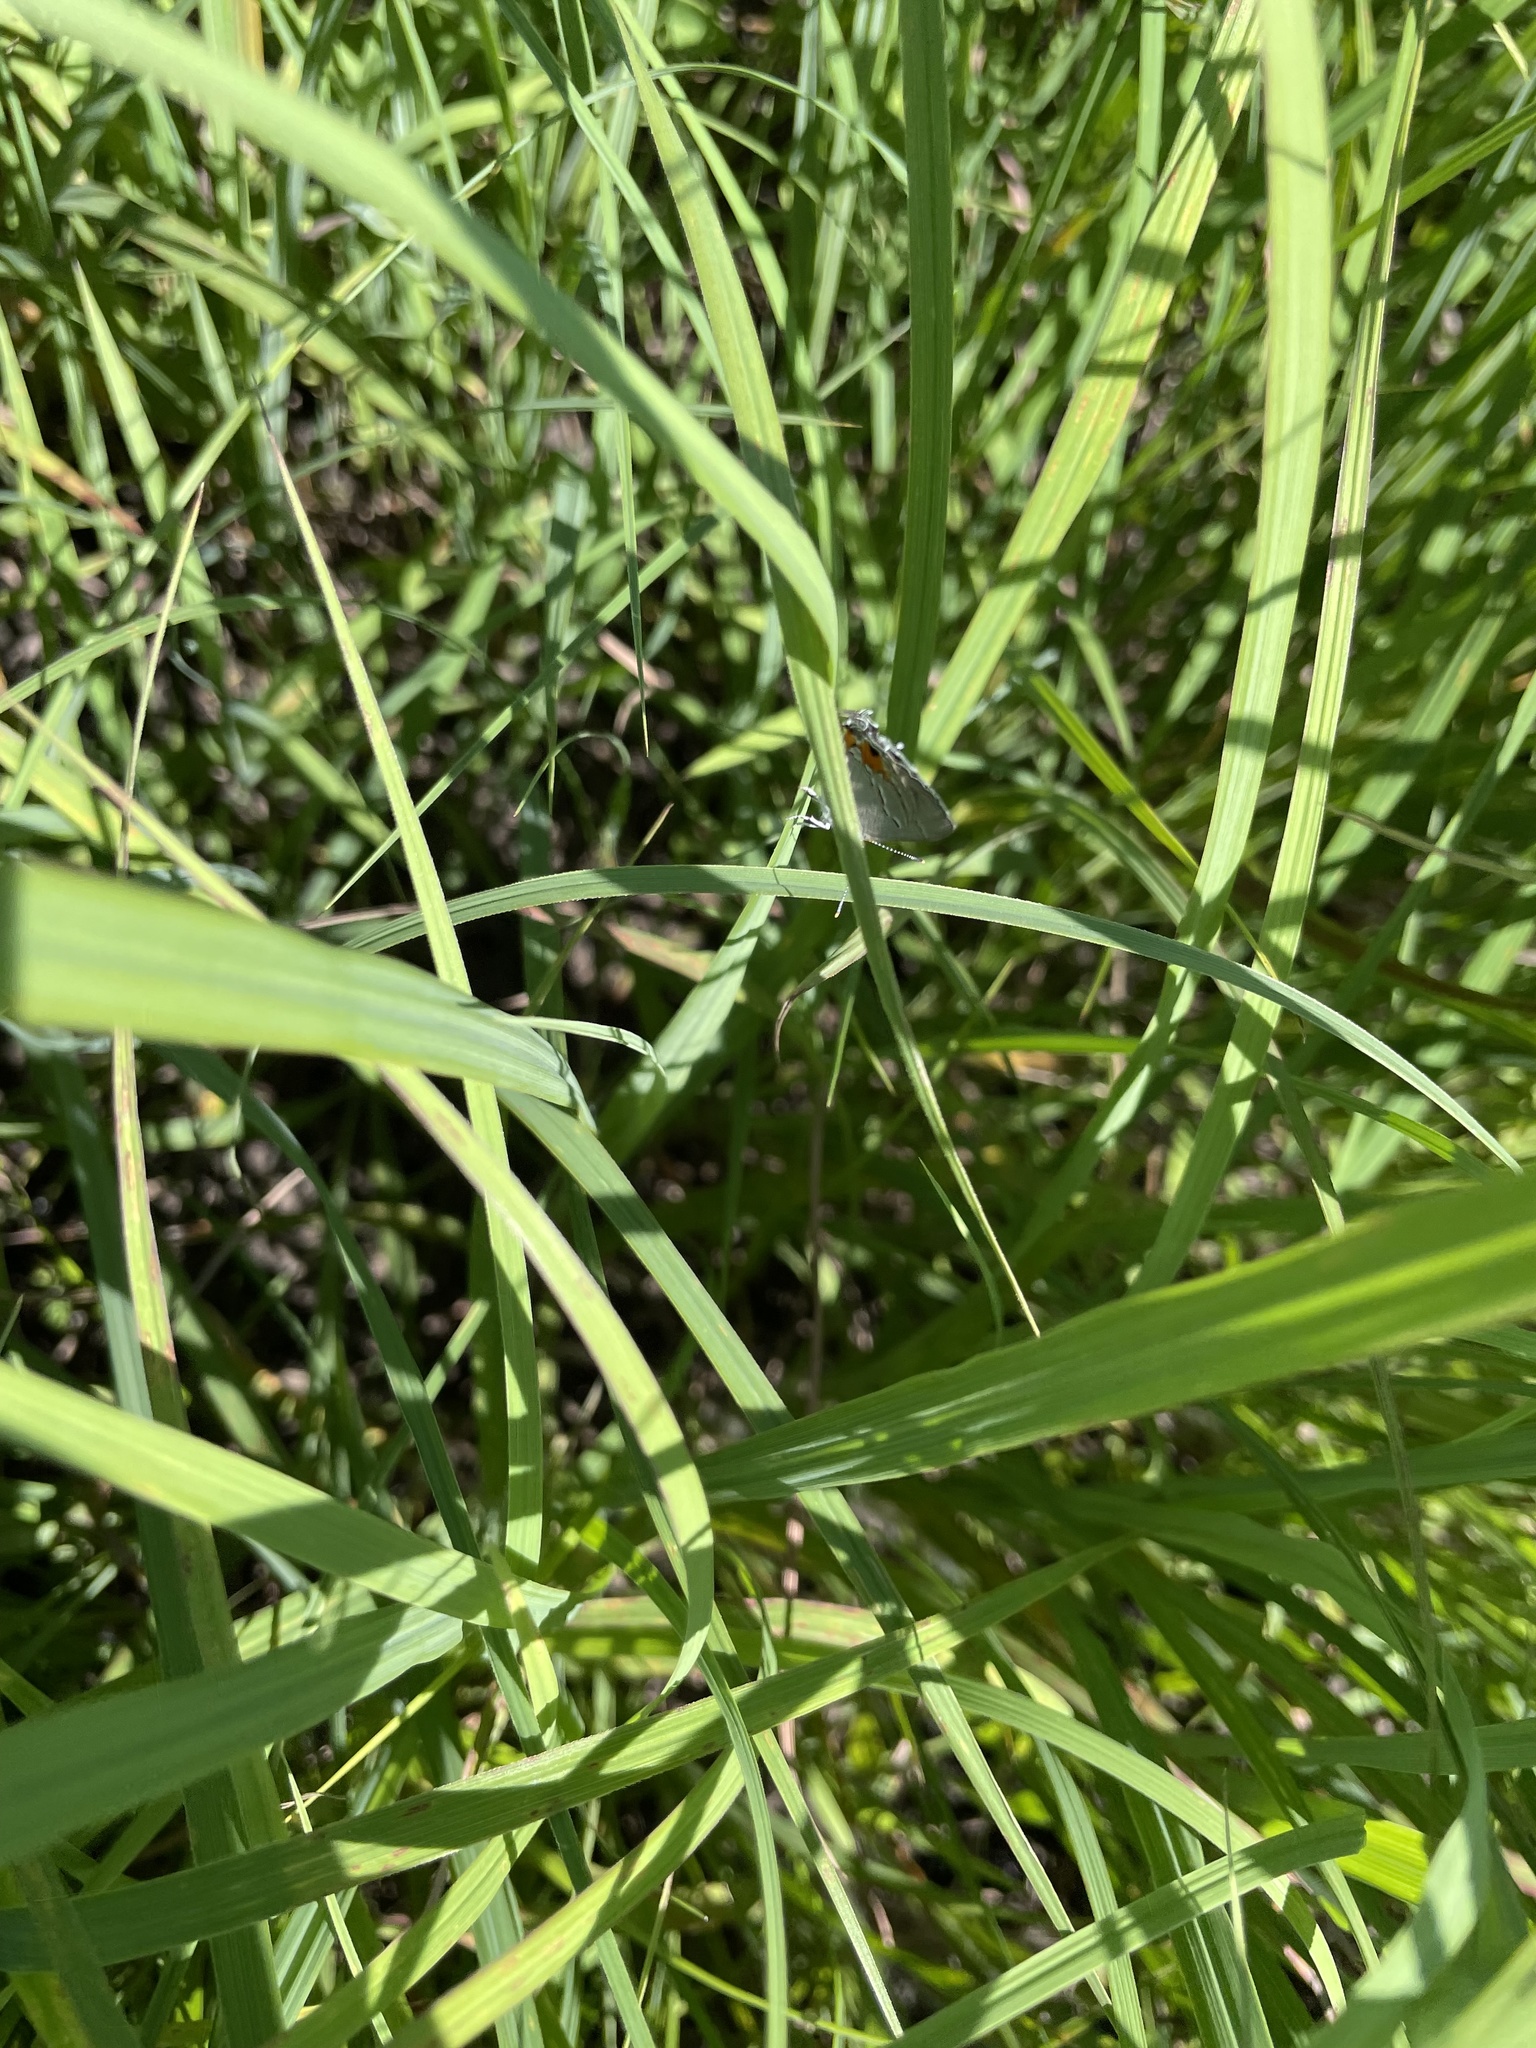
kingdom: Animalia
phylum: Arthropoda
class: Insecta
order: Lepidoptera
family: Lycaenidae
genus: Strymon
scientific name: Strymon melinus
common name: Gray hairstreak
